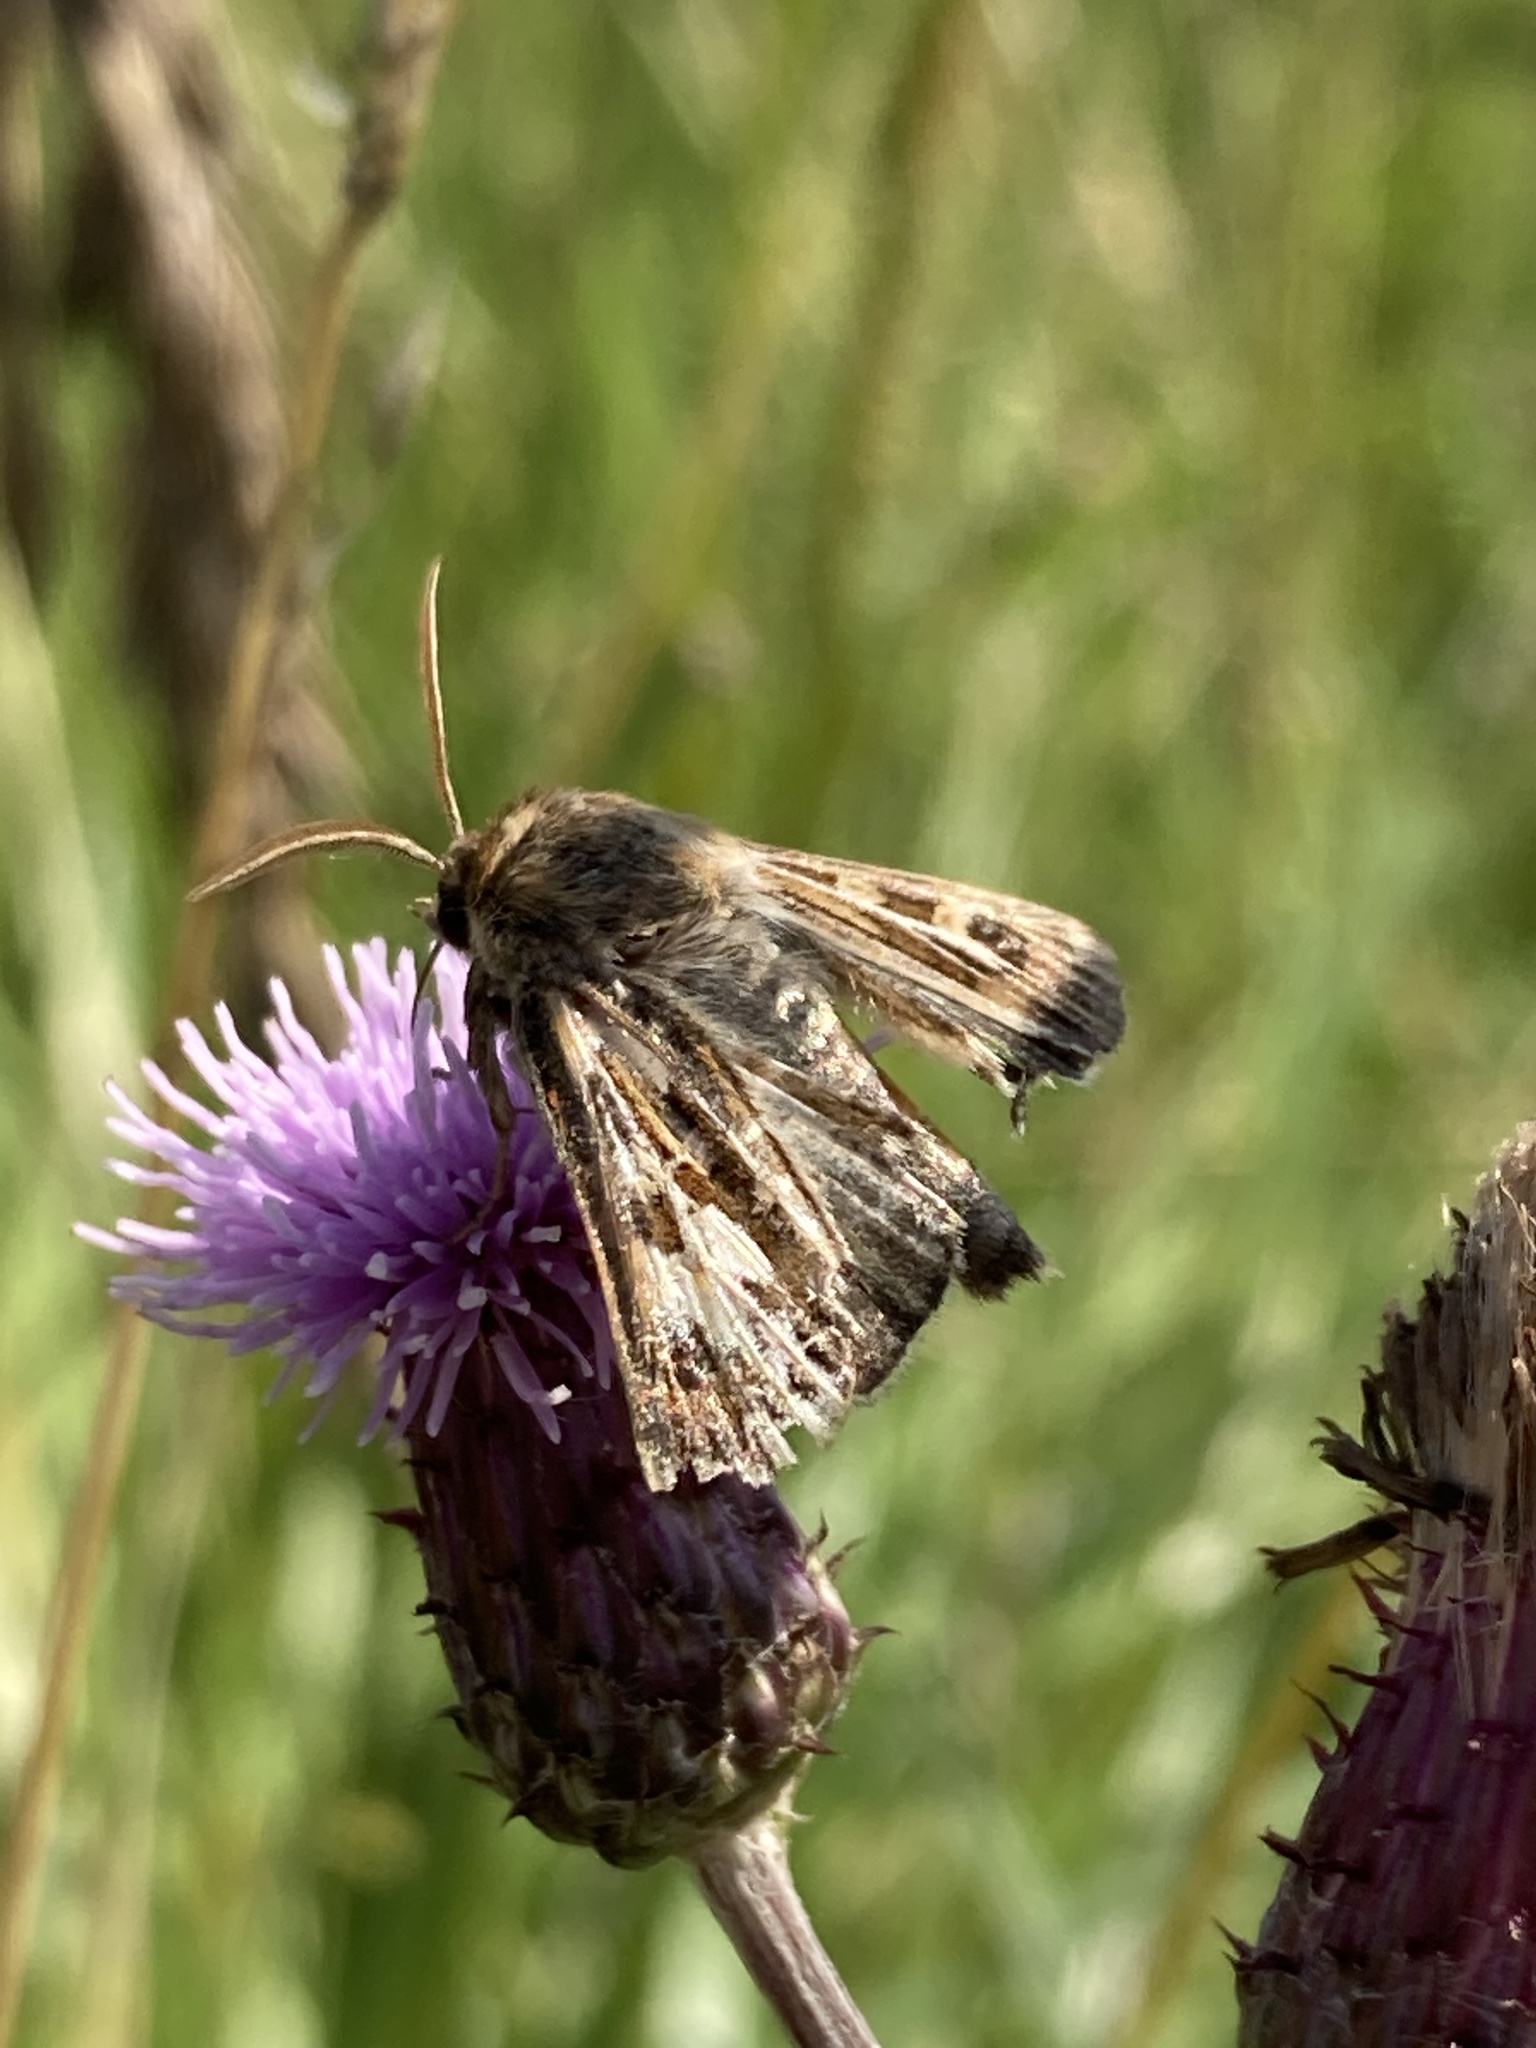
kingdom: Animalia
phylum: Arthropoda
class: Insecta
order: Lepidoptera
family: Noctuidae
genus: Cerapteryx
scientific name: Cerapteryx graminis
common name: Antler moth
